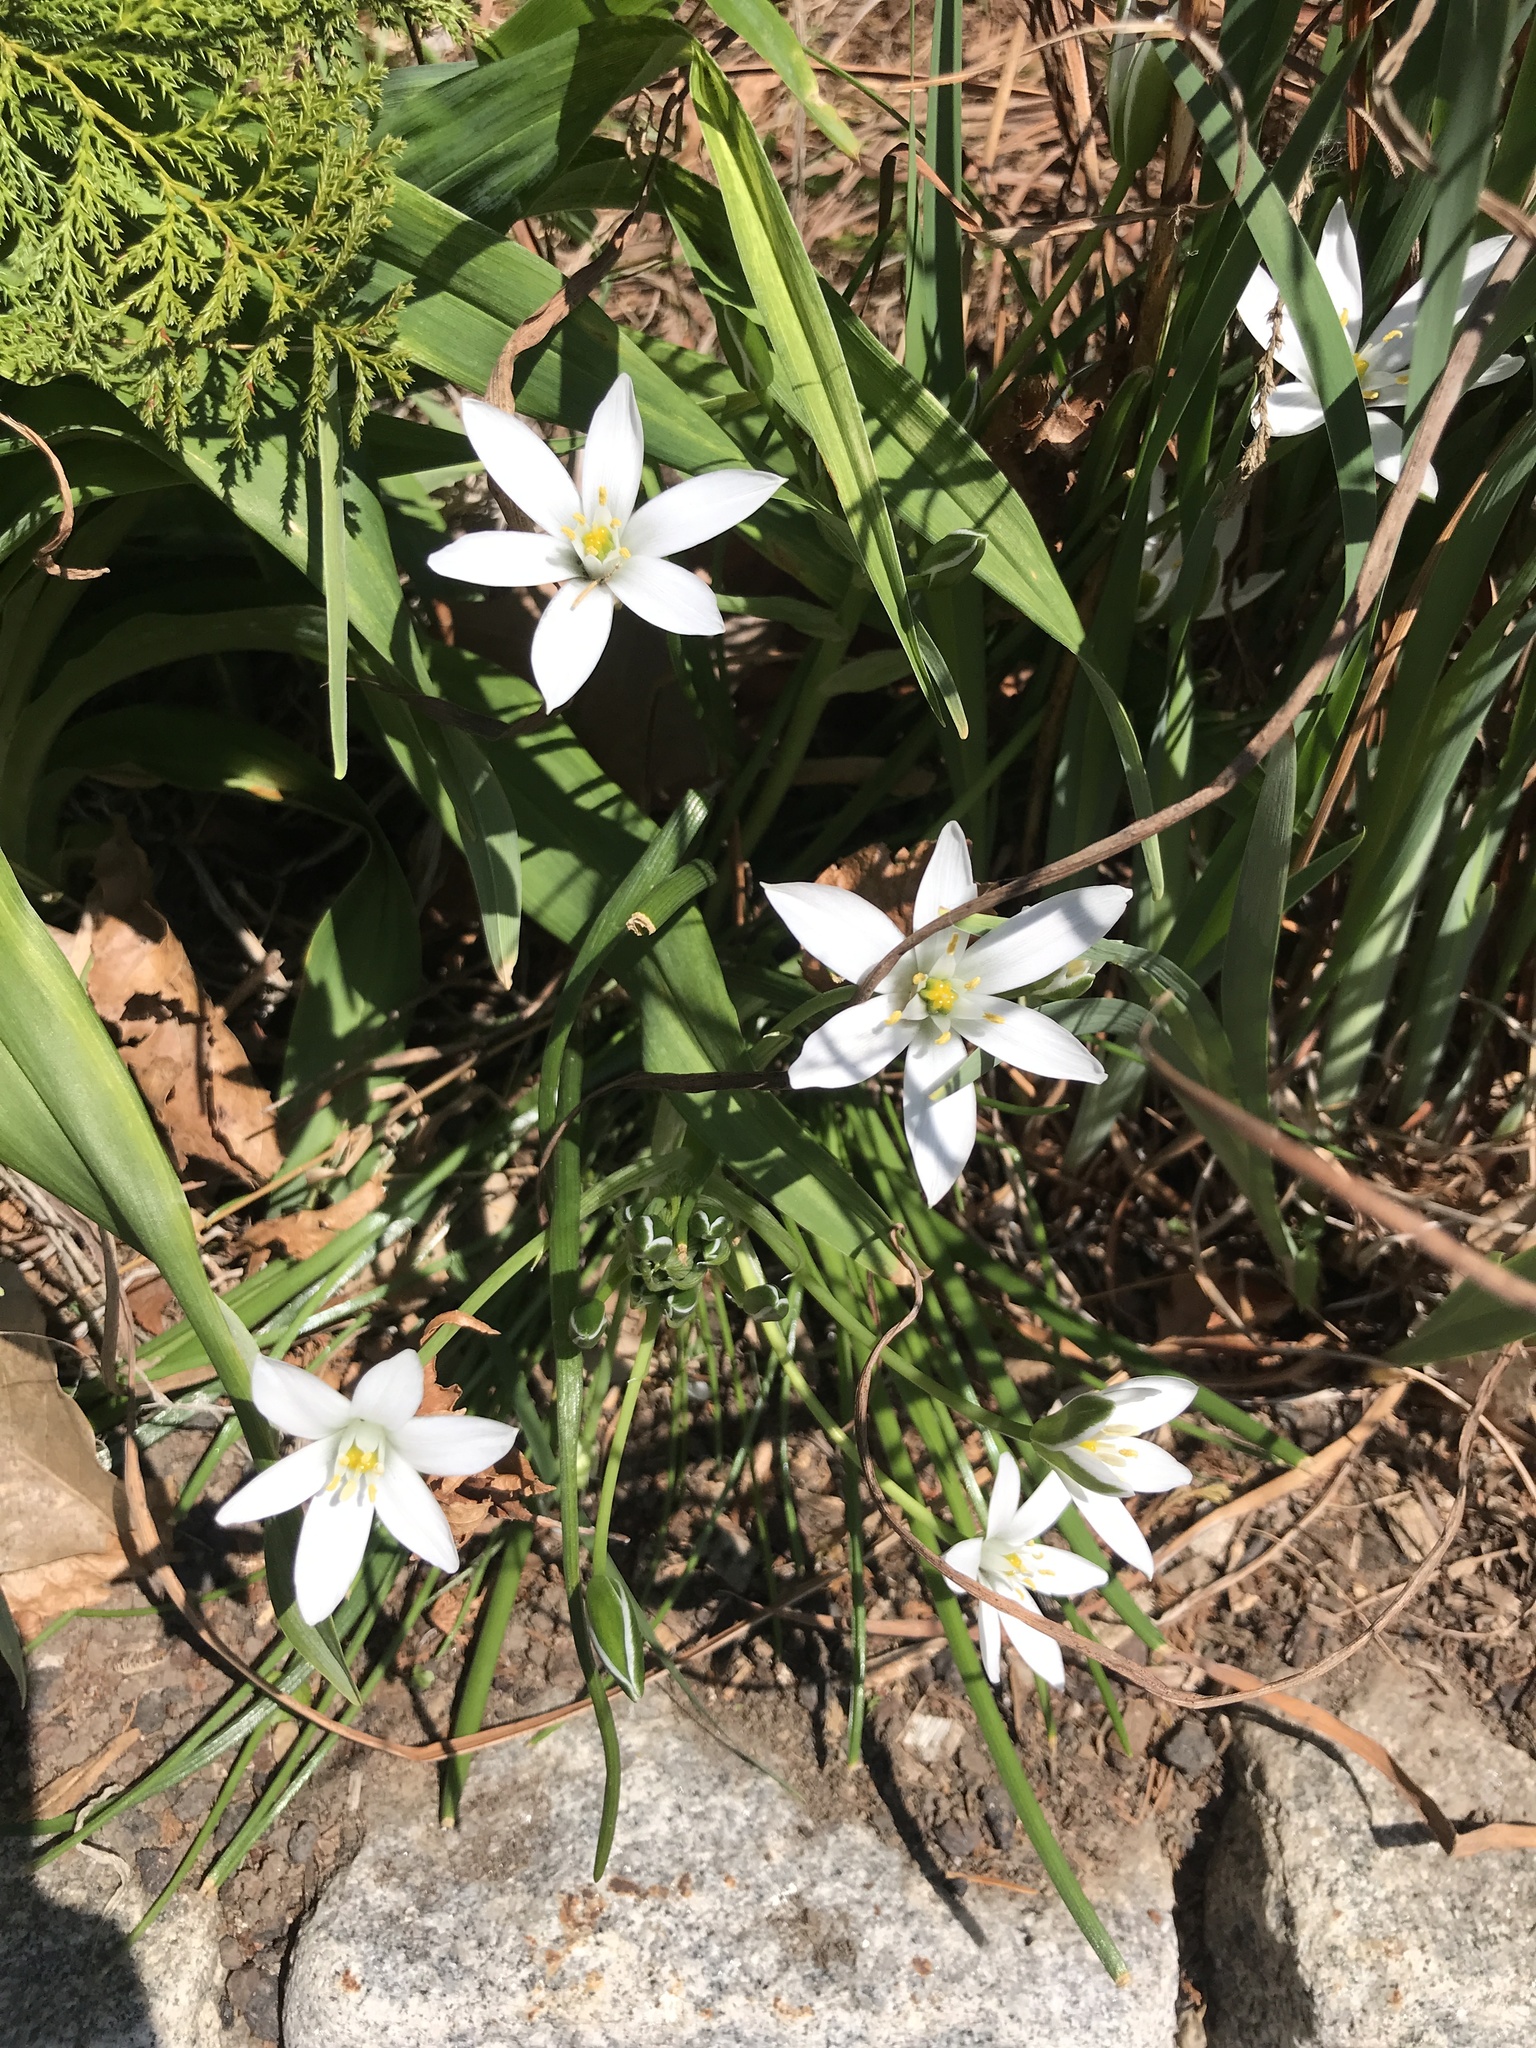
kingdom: Plantae
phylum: Tracheophyta
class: Liliopsida
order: Asparagales
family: Asparagaceae
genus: Ornithogalum
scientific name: Ornithogalum umbellatum
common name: Garden star-of-bethlehem
